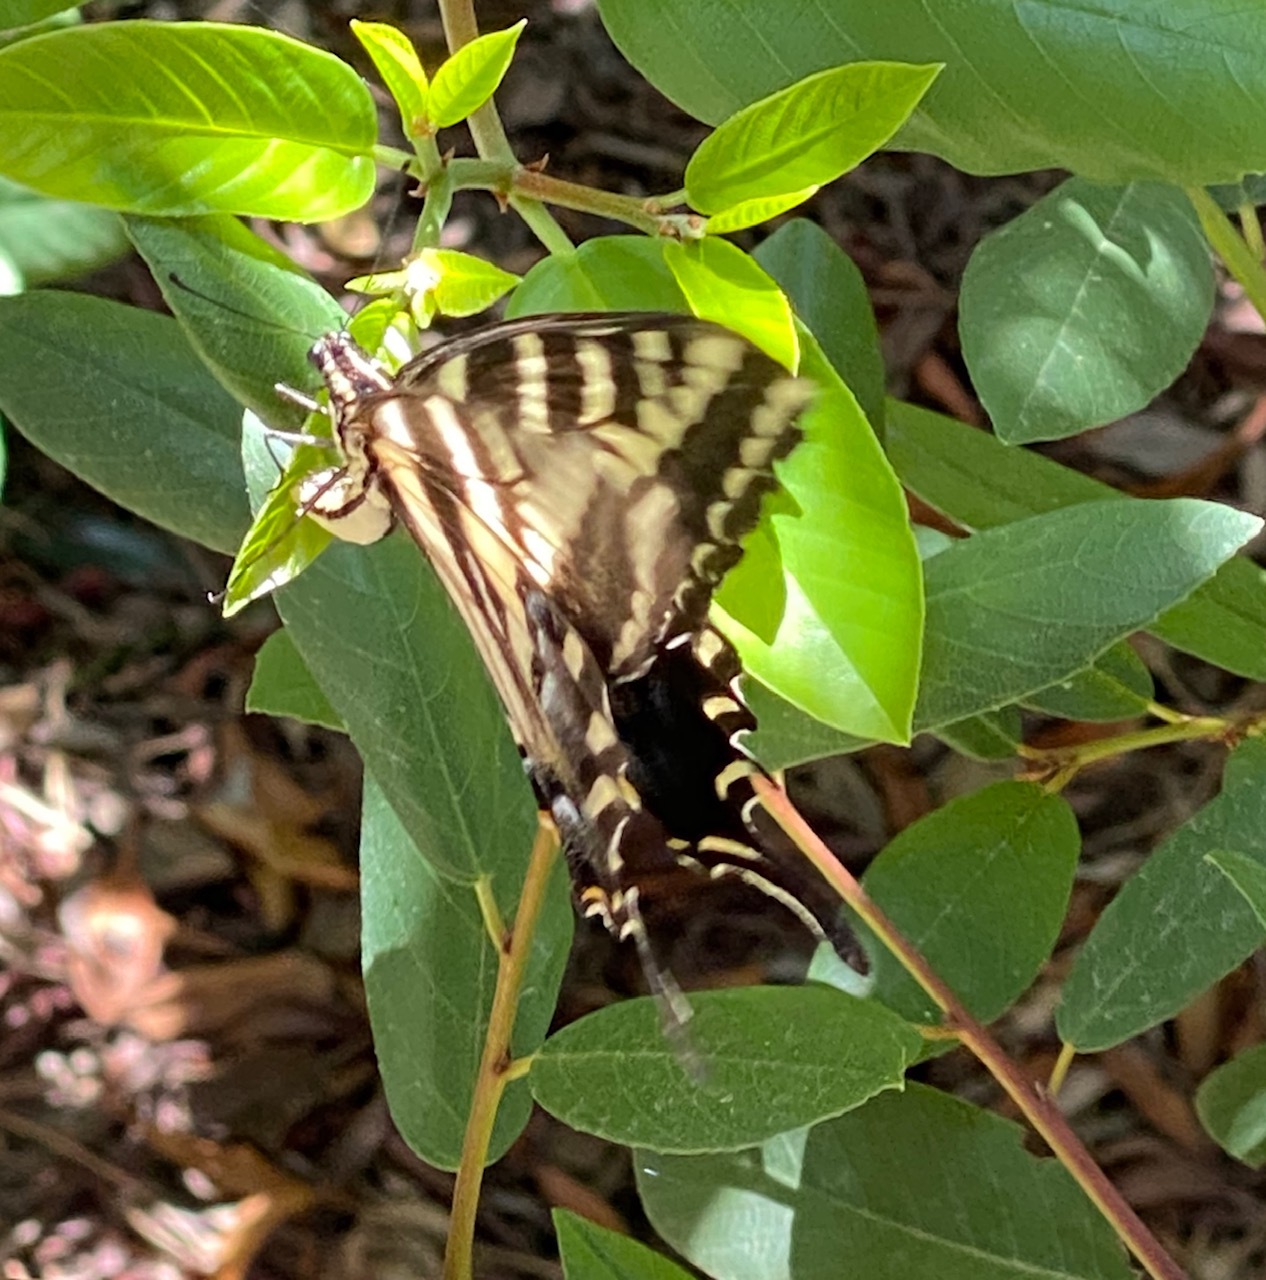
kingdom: Animalia
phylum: Arthropoda
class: Insecta
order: Lepidoptera
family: Papilionidae
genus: Papilio
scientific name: Papilio eurymedon
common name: Pale tiger swallowtail
